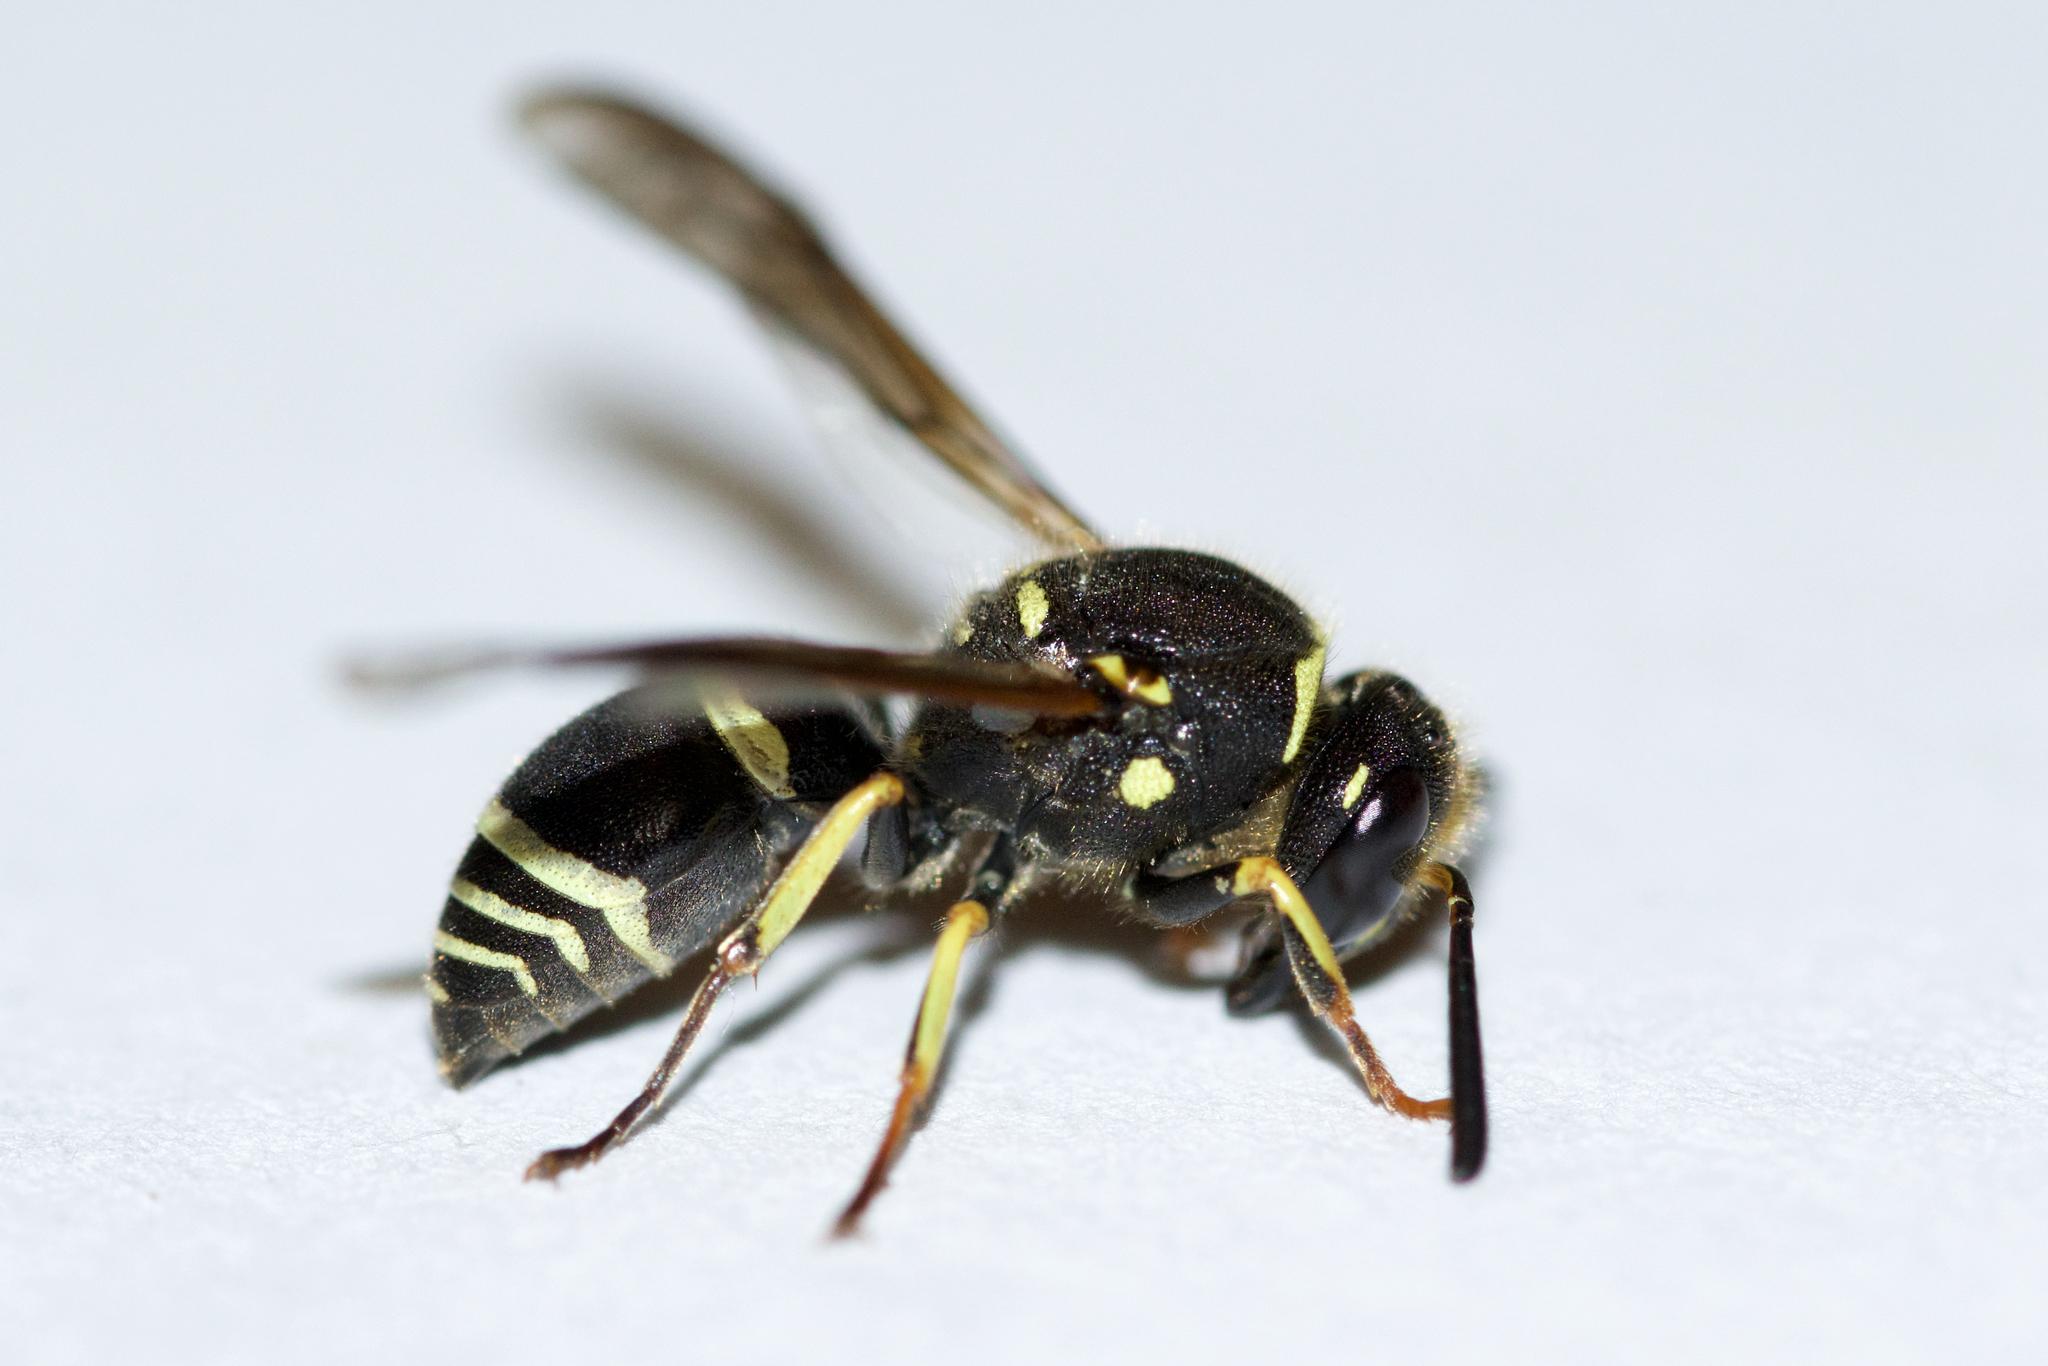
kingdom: Animalia
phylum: Arthropoda
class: Insecta
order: Hymenoptera
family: Vespidae
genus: Ancistrocerus
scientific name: Ancistrocerus catskill
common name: Vespid wasp
